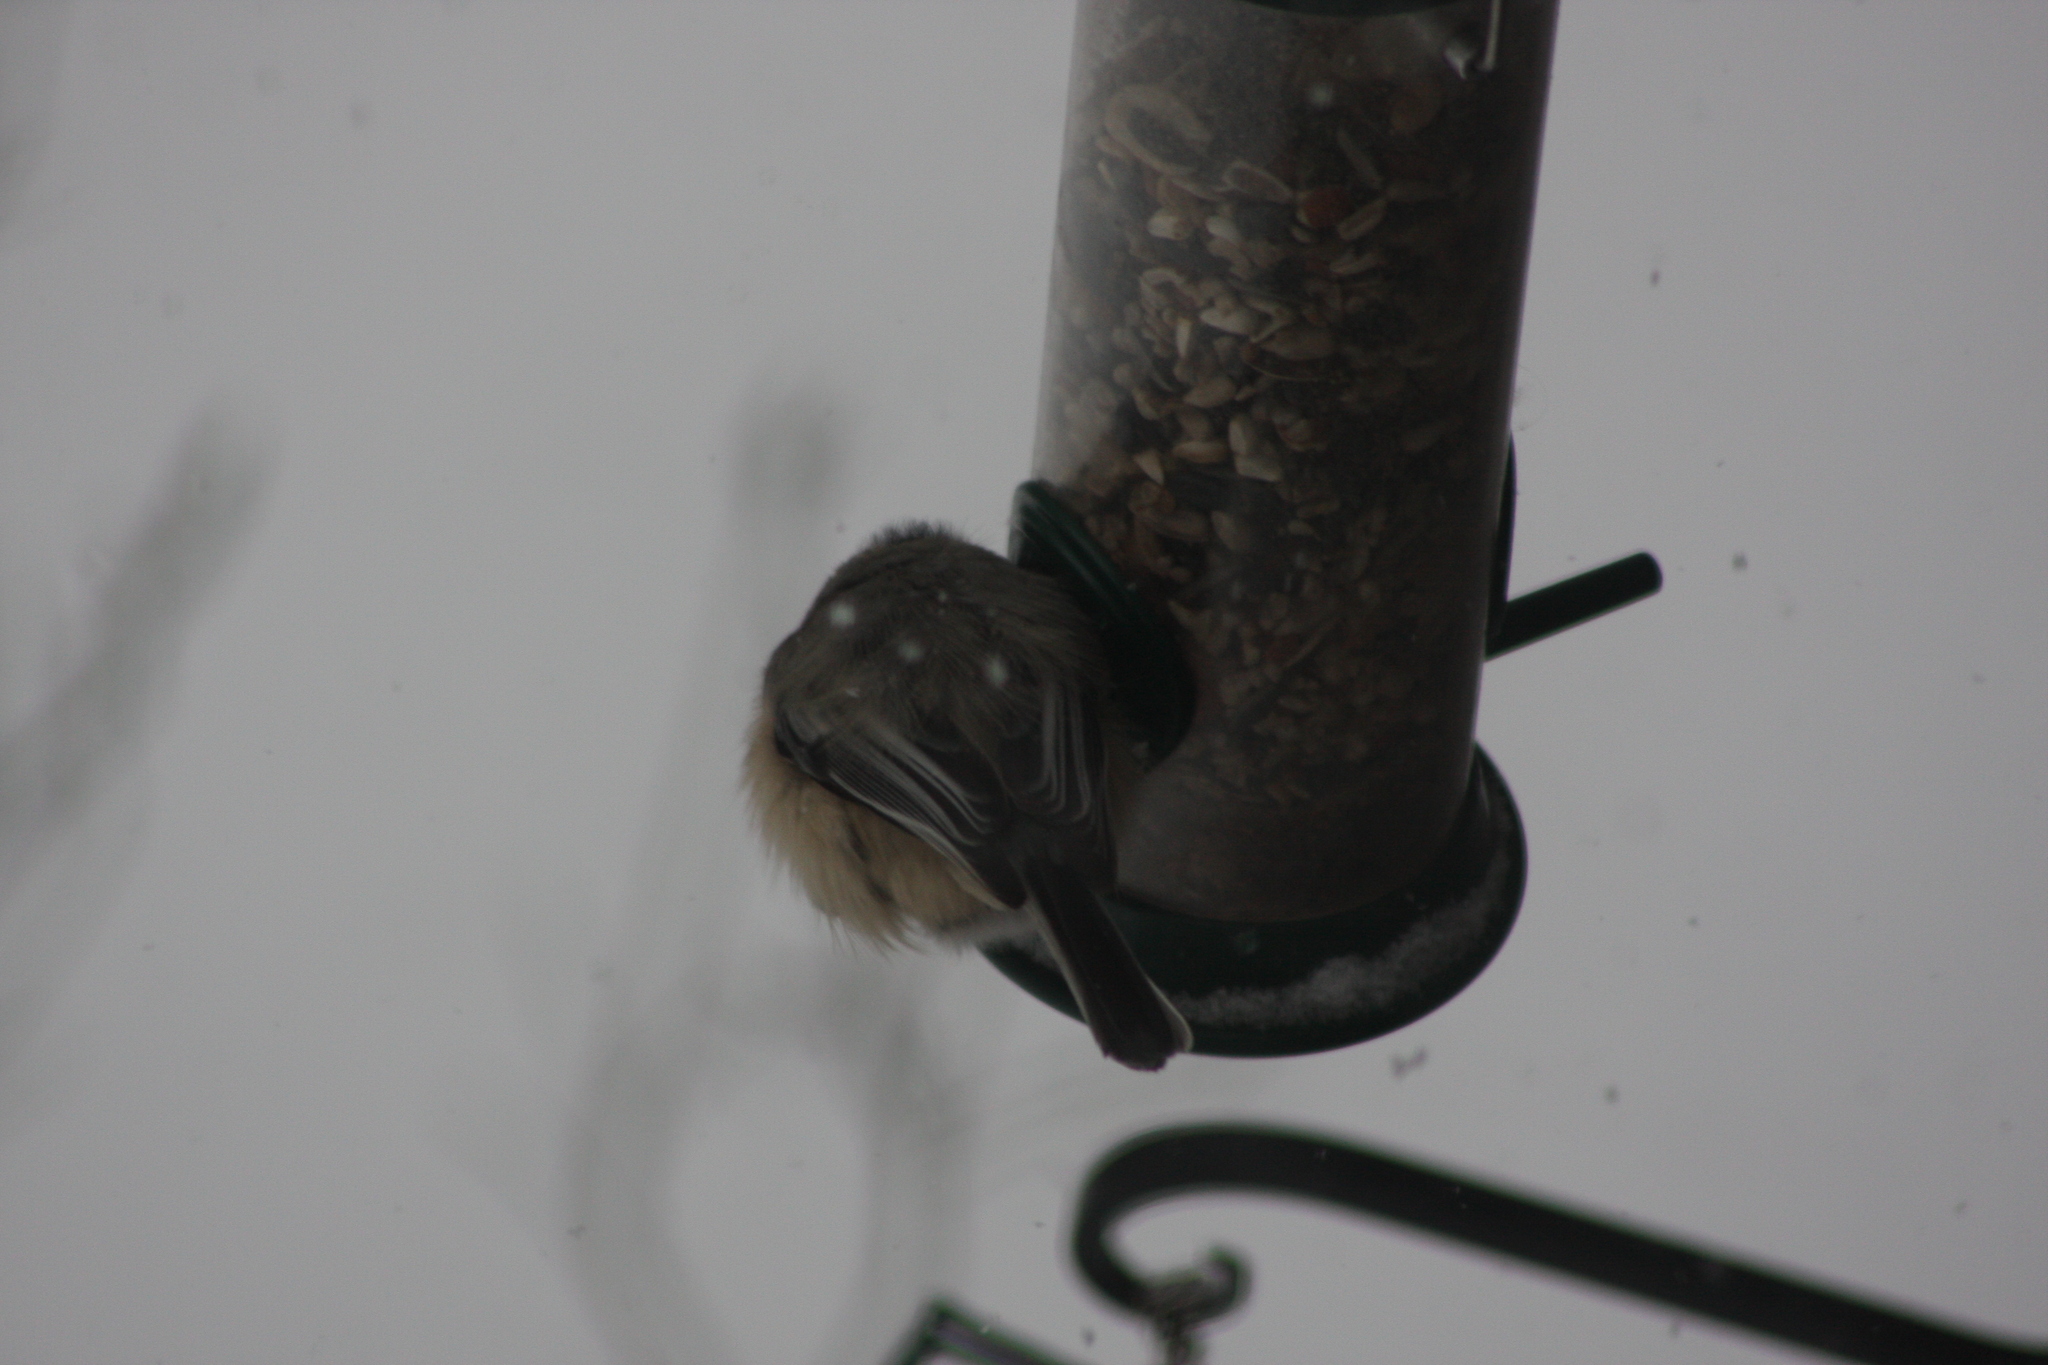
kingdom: Animalia
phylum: Chordata
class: Aves
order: Passeriformes
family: Paridae
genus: Poecile
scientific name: Poecile atricapillus
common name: Black-capped chickadee
